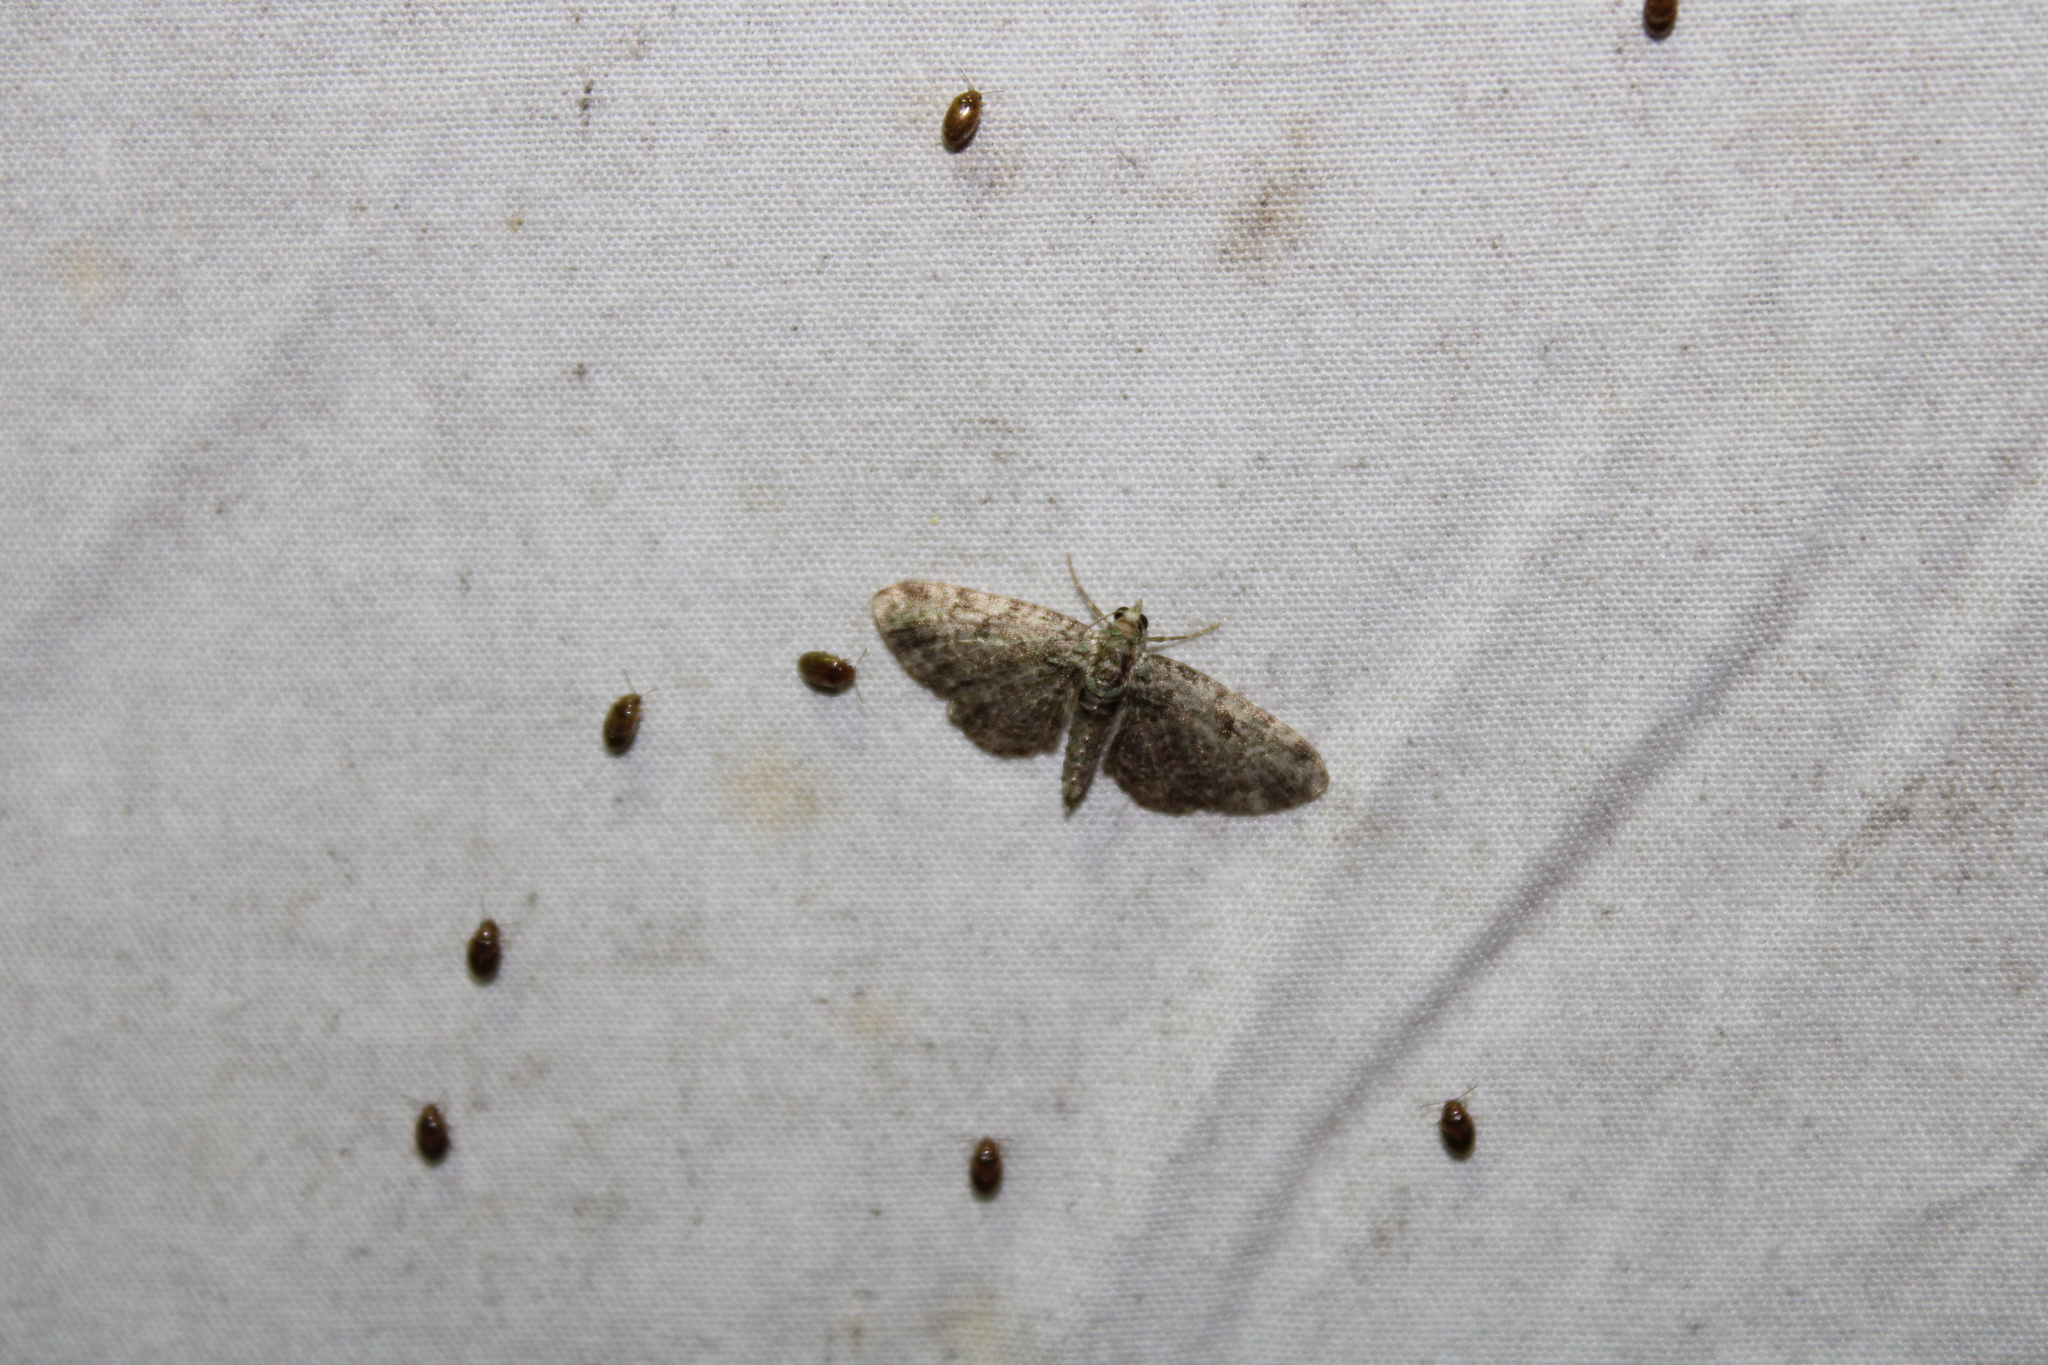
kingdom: Animalia
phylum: Arthropoda
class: Insecta
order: Lepidoptera
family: Geometridae
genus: Pasiphila
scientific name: Pasiphila rectangulata
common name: Green pug
